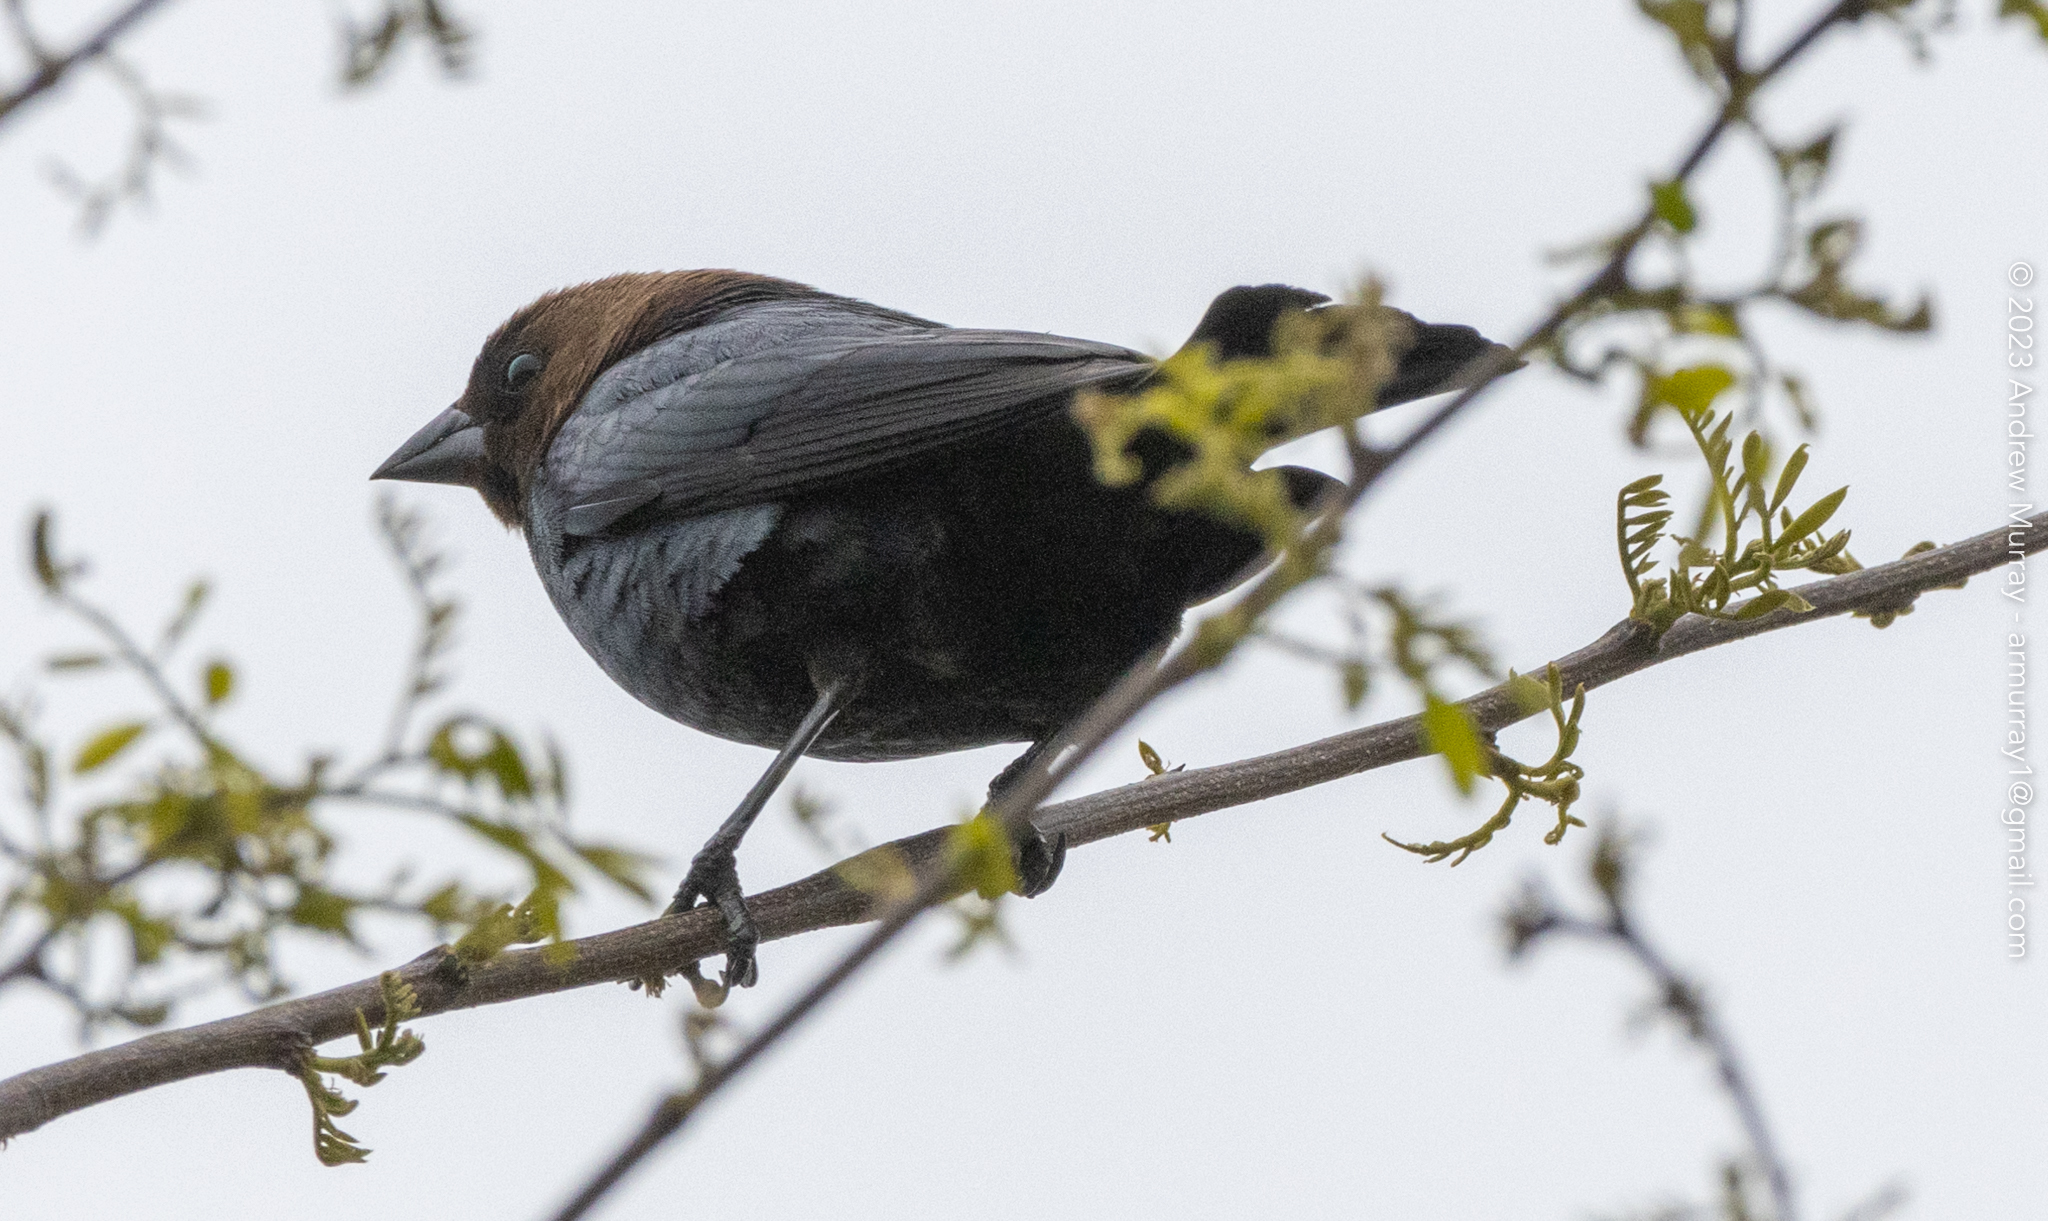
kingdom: Animalia
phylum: Chordata
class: Aves
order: Passeriformes
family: Icteridae
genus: Molothrus
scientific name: Molothrus ater
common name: Brown-headed cowbird
